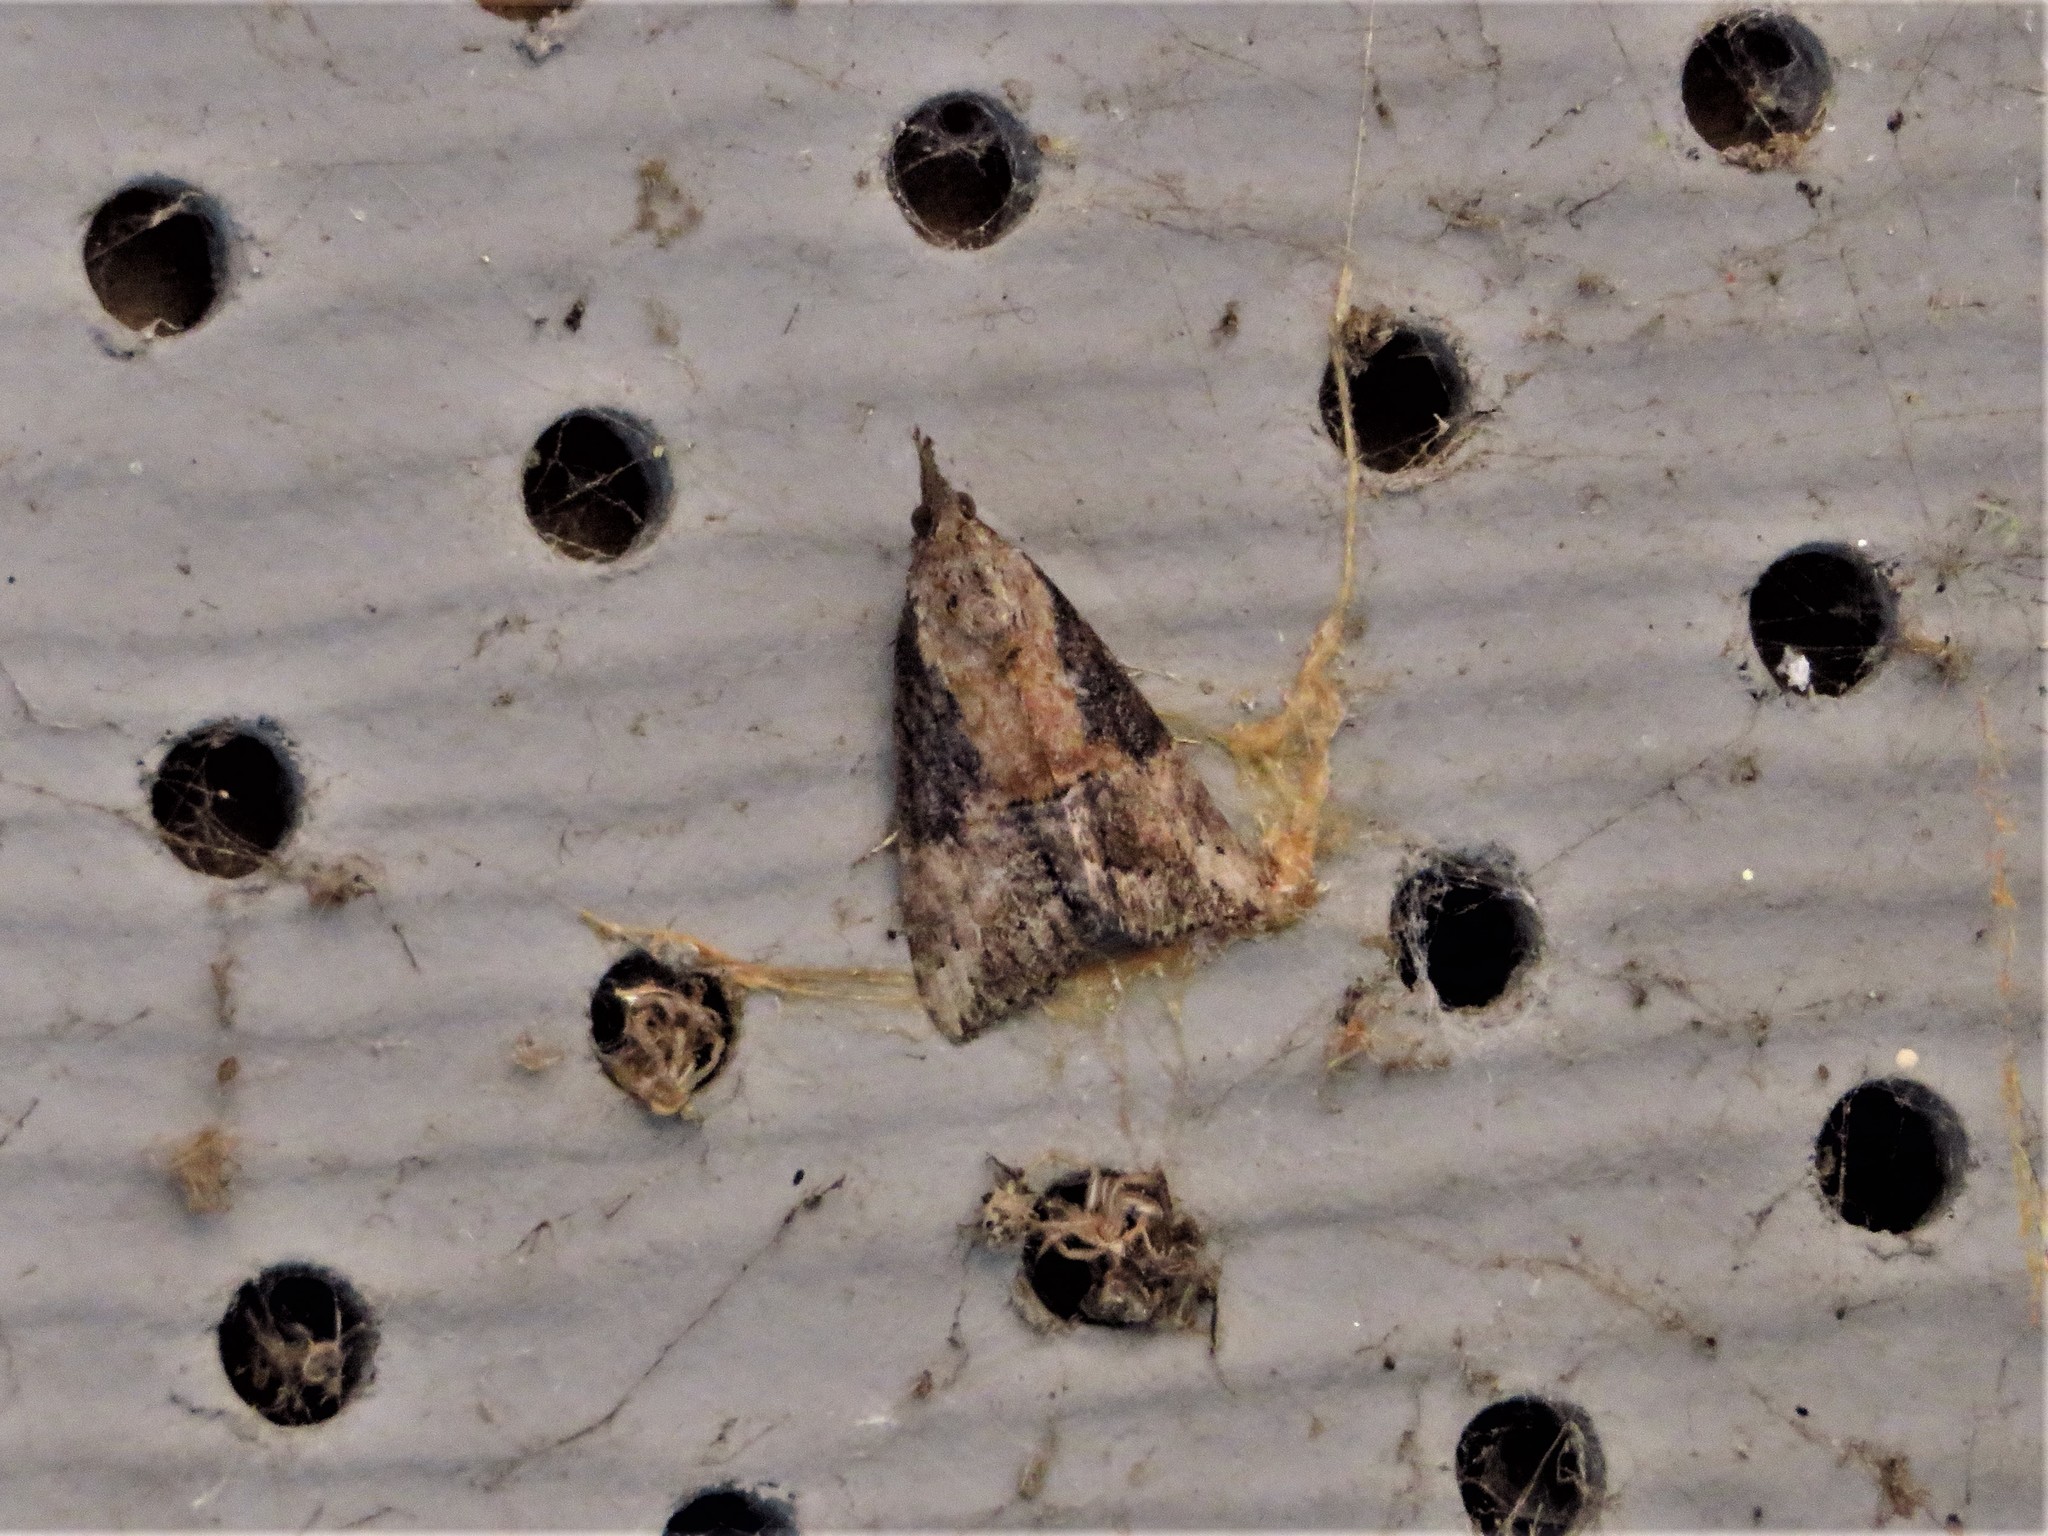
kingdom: Animalia
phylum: Arthropoda
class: Insecta
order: Lepidoptera
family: Erebidae
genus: Hypena
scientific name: Hypena scabra
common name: Green cloverworm
